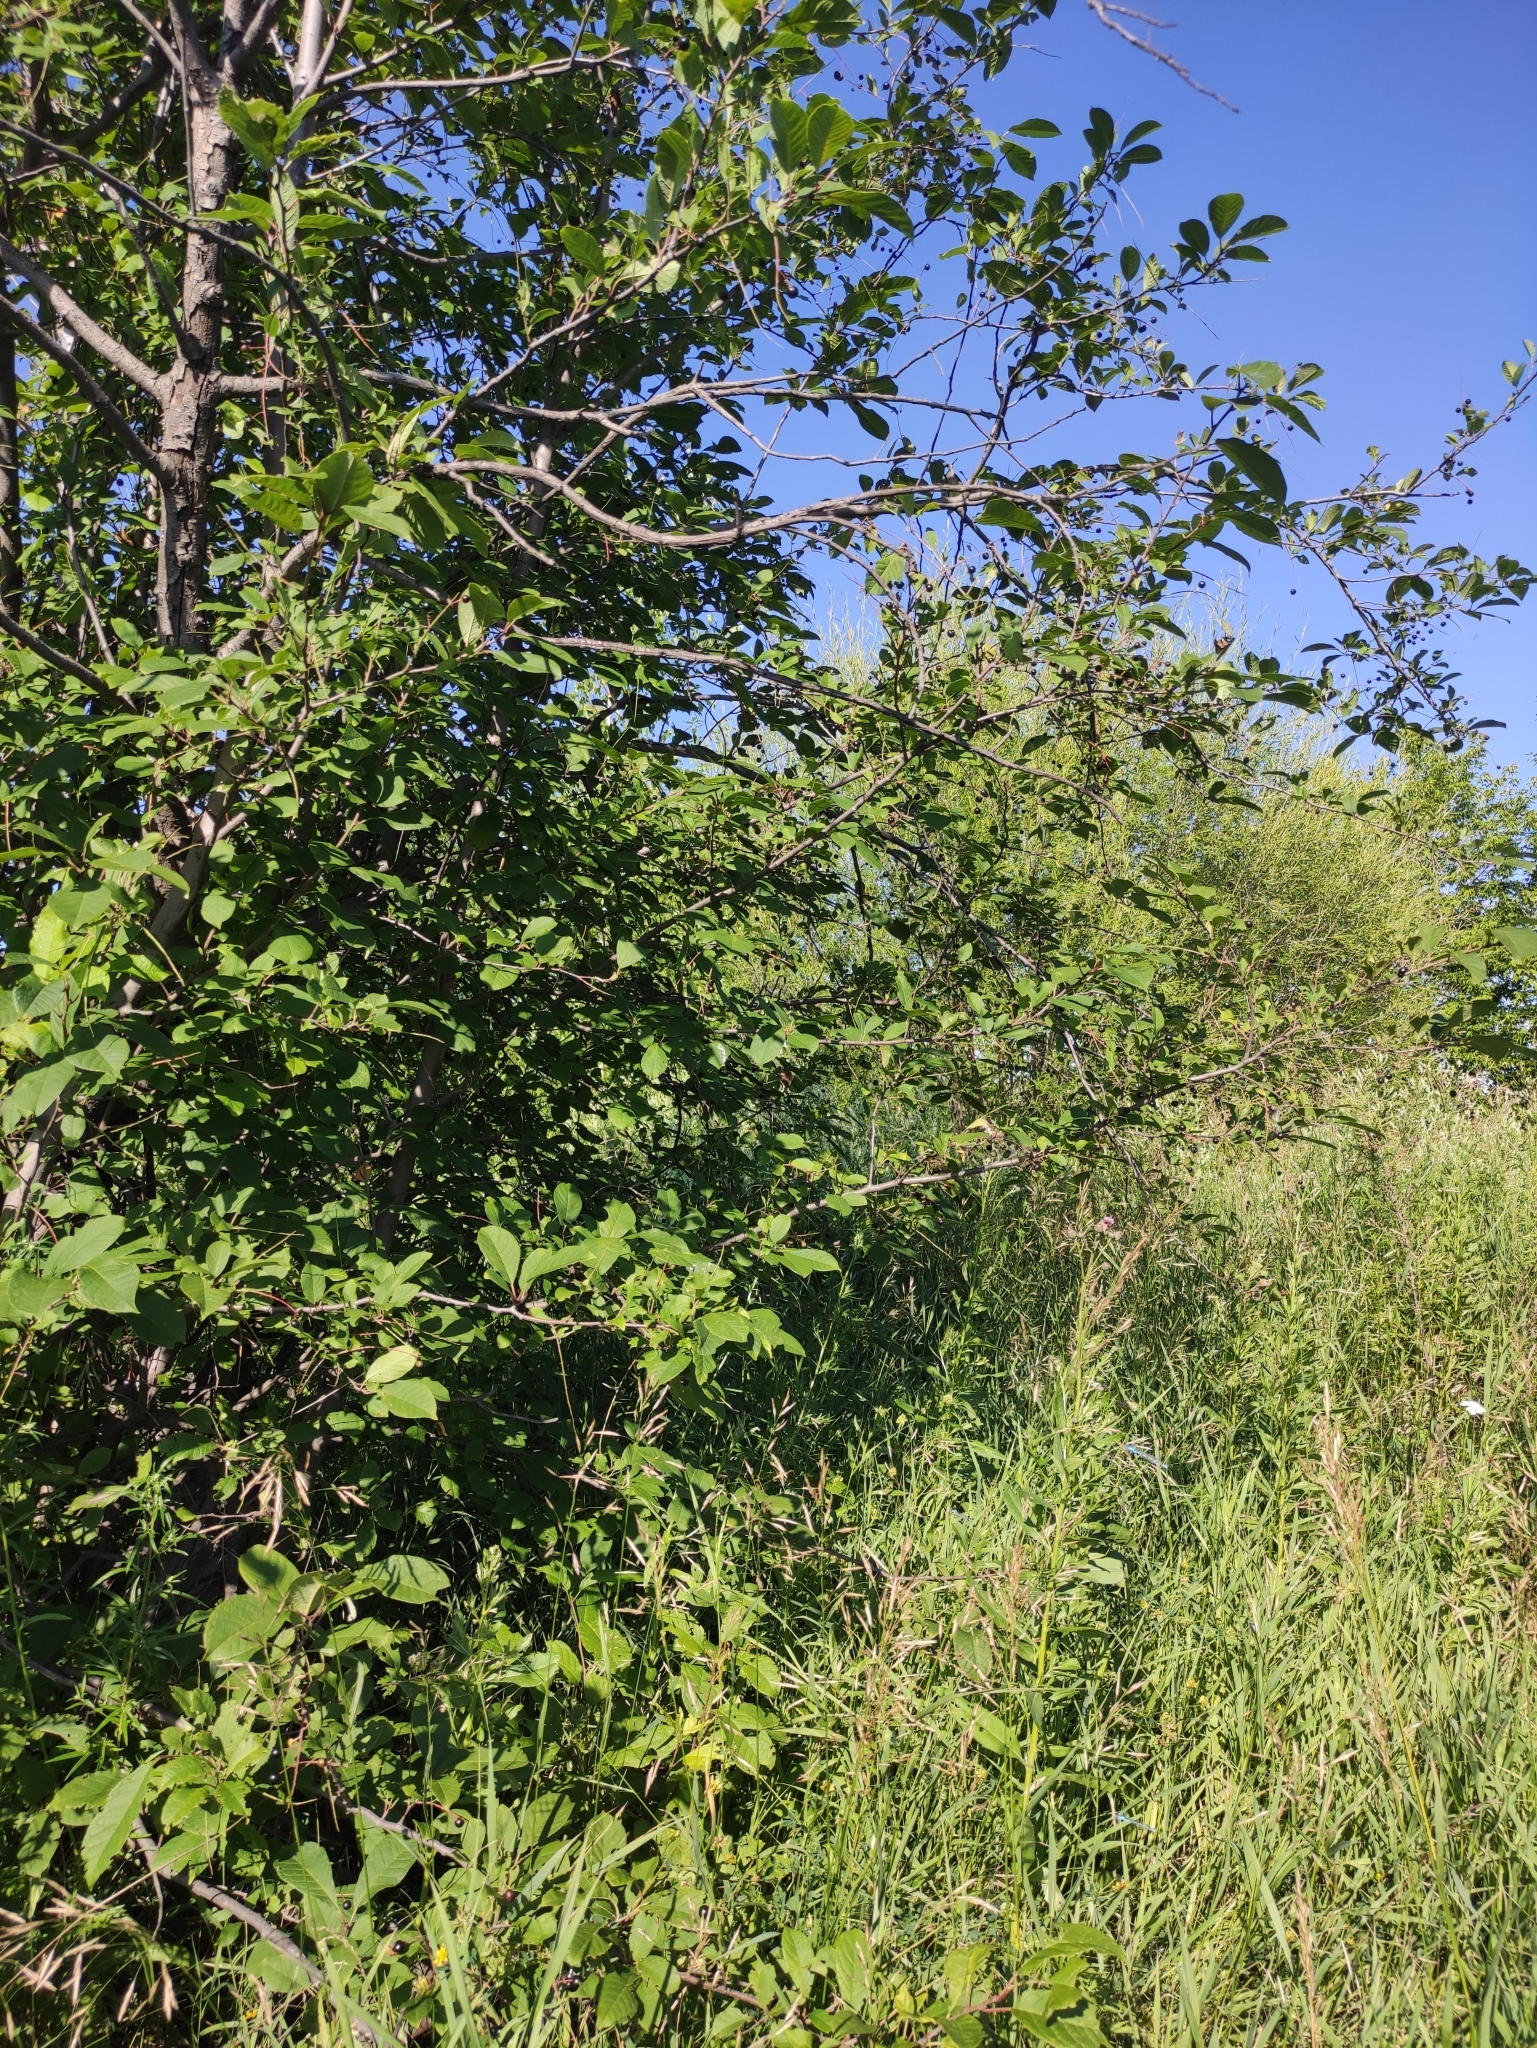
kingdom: Plantae
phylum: Tracheophyta
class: Magnoliopsida
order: Rosales
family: Rosaceae
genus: Prunus
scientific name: Prunus padus
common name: Bird cherry
